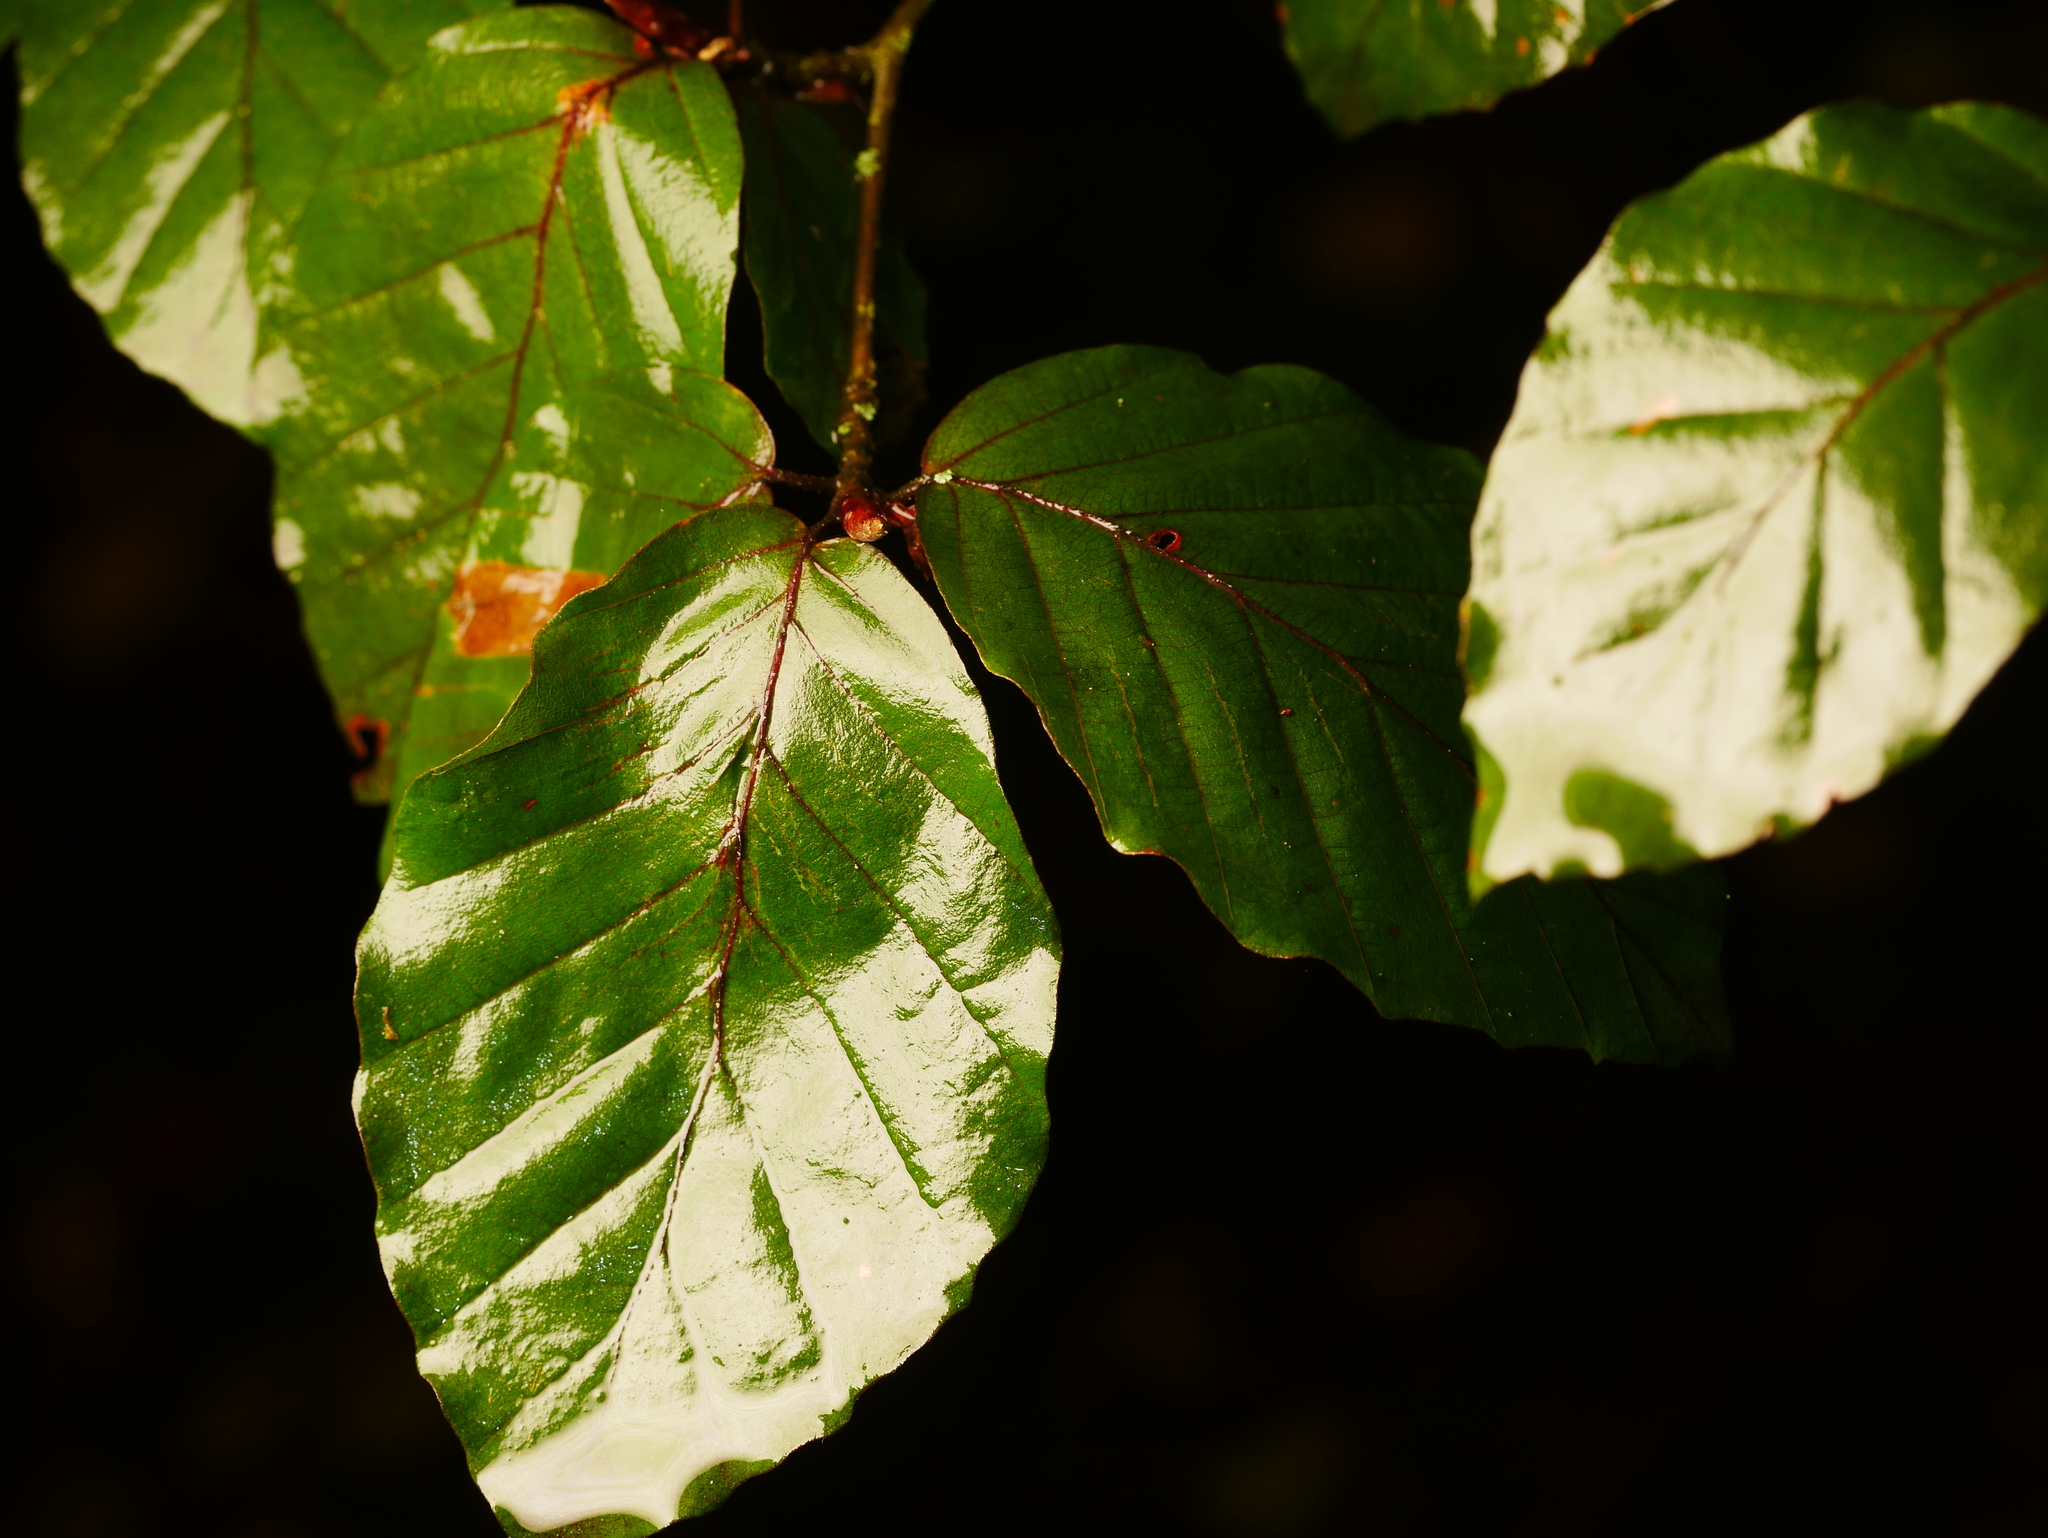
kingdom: Plantae
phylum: Tracheophyta
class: Magnoliopsida
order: Fagales
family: Fagaceae
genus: Fagus
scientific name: Fagus sylvatica
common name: Beech
